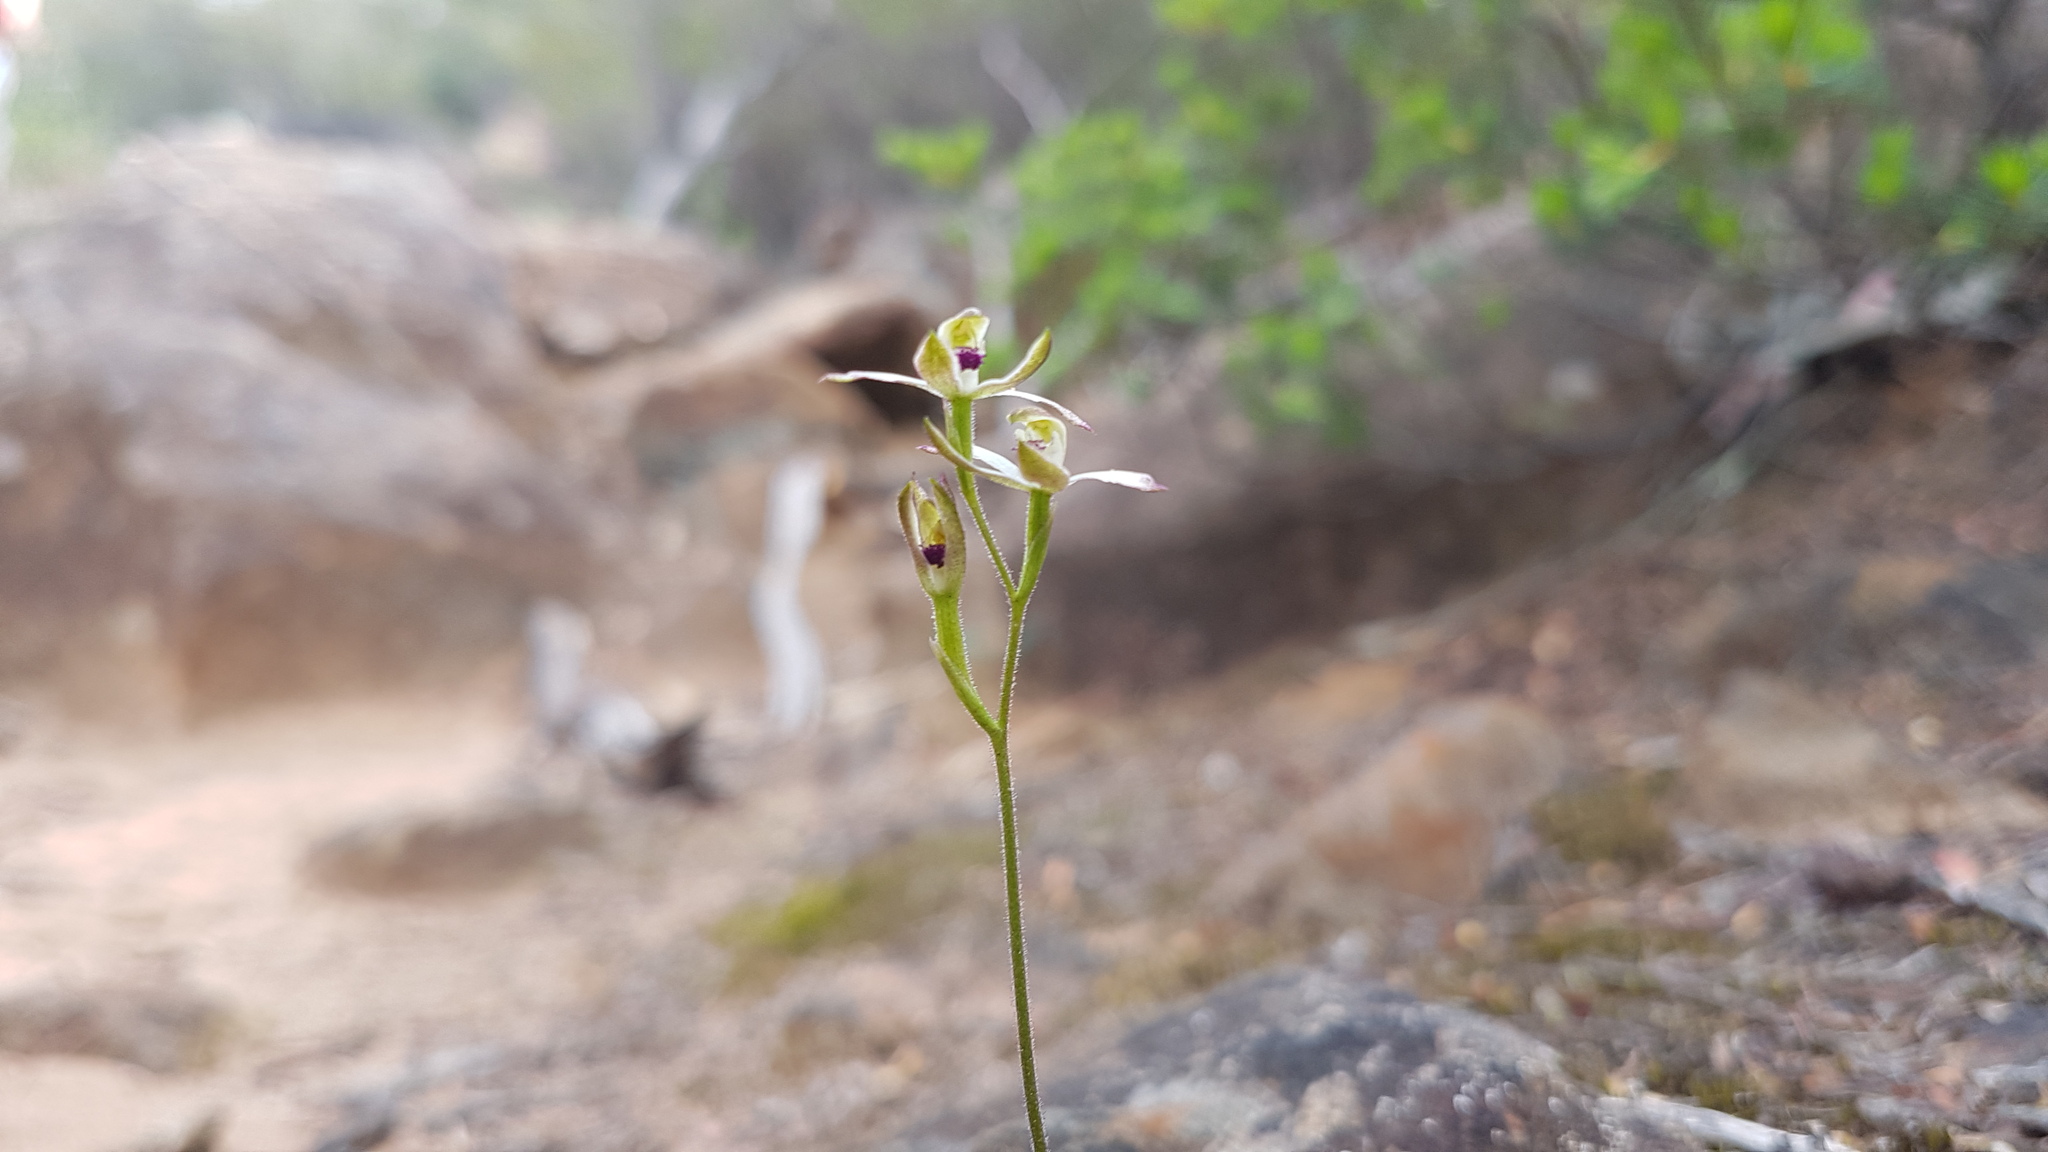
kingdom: Plantae
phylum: Tracheophyta
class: Liliopsida
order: Asparagales
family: Orchidaceae
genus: Caladenia
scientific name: Caladenia cucullata
